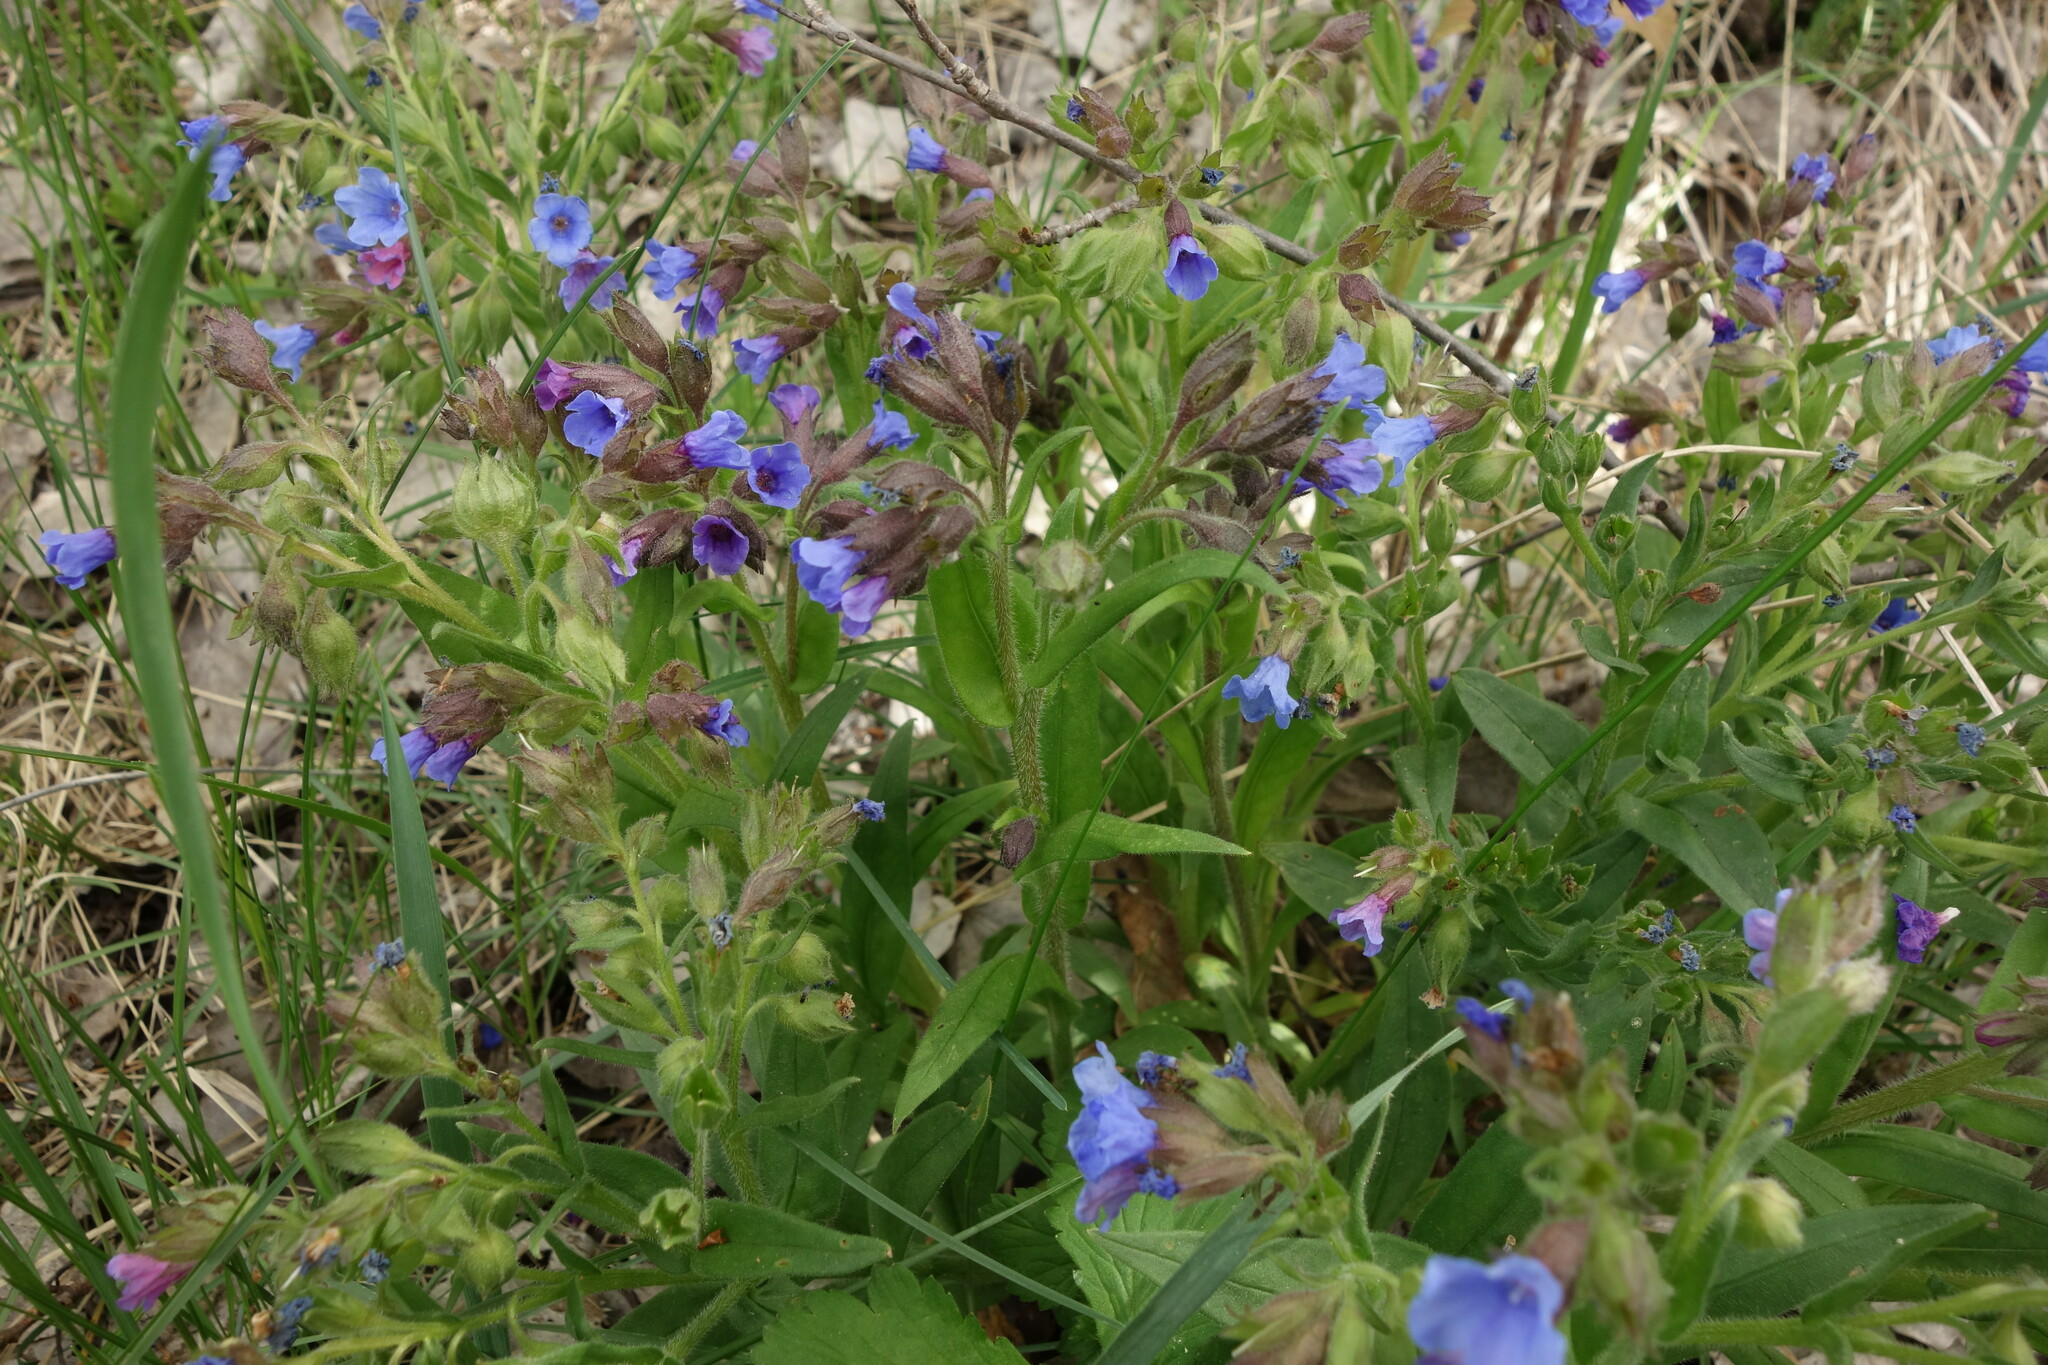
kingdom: Plantae
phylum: Tracheophyta
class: Magnoliopsida
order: Boraginales
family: Boraginaceae
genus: Pulmonaria
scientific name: Pulmonaria angustifolia
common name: Blue cowslip
